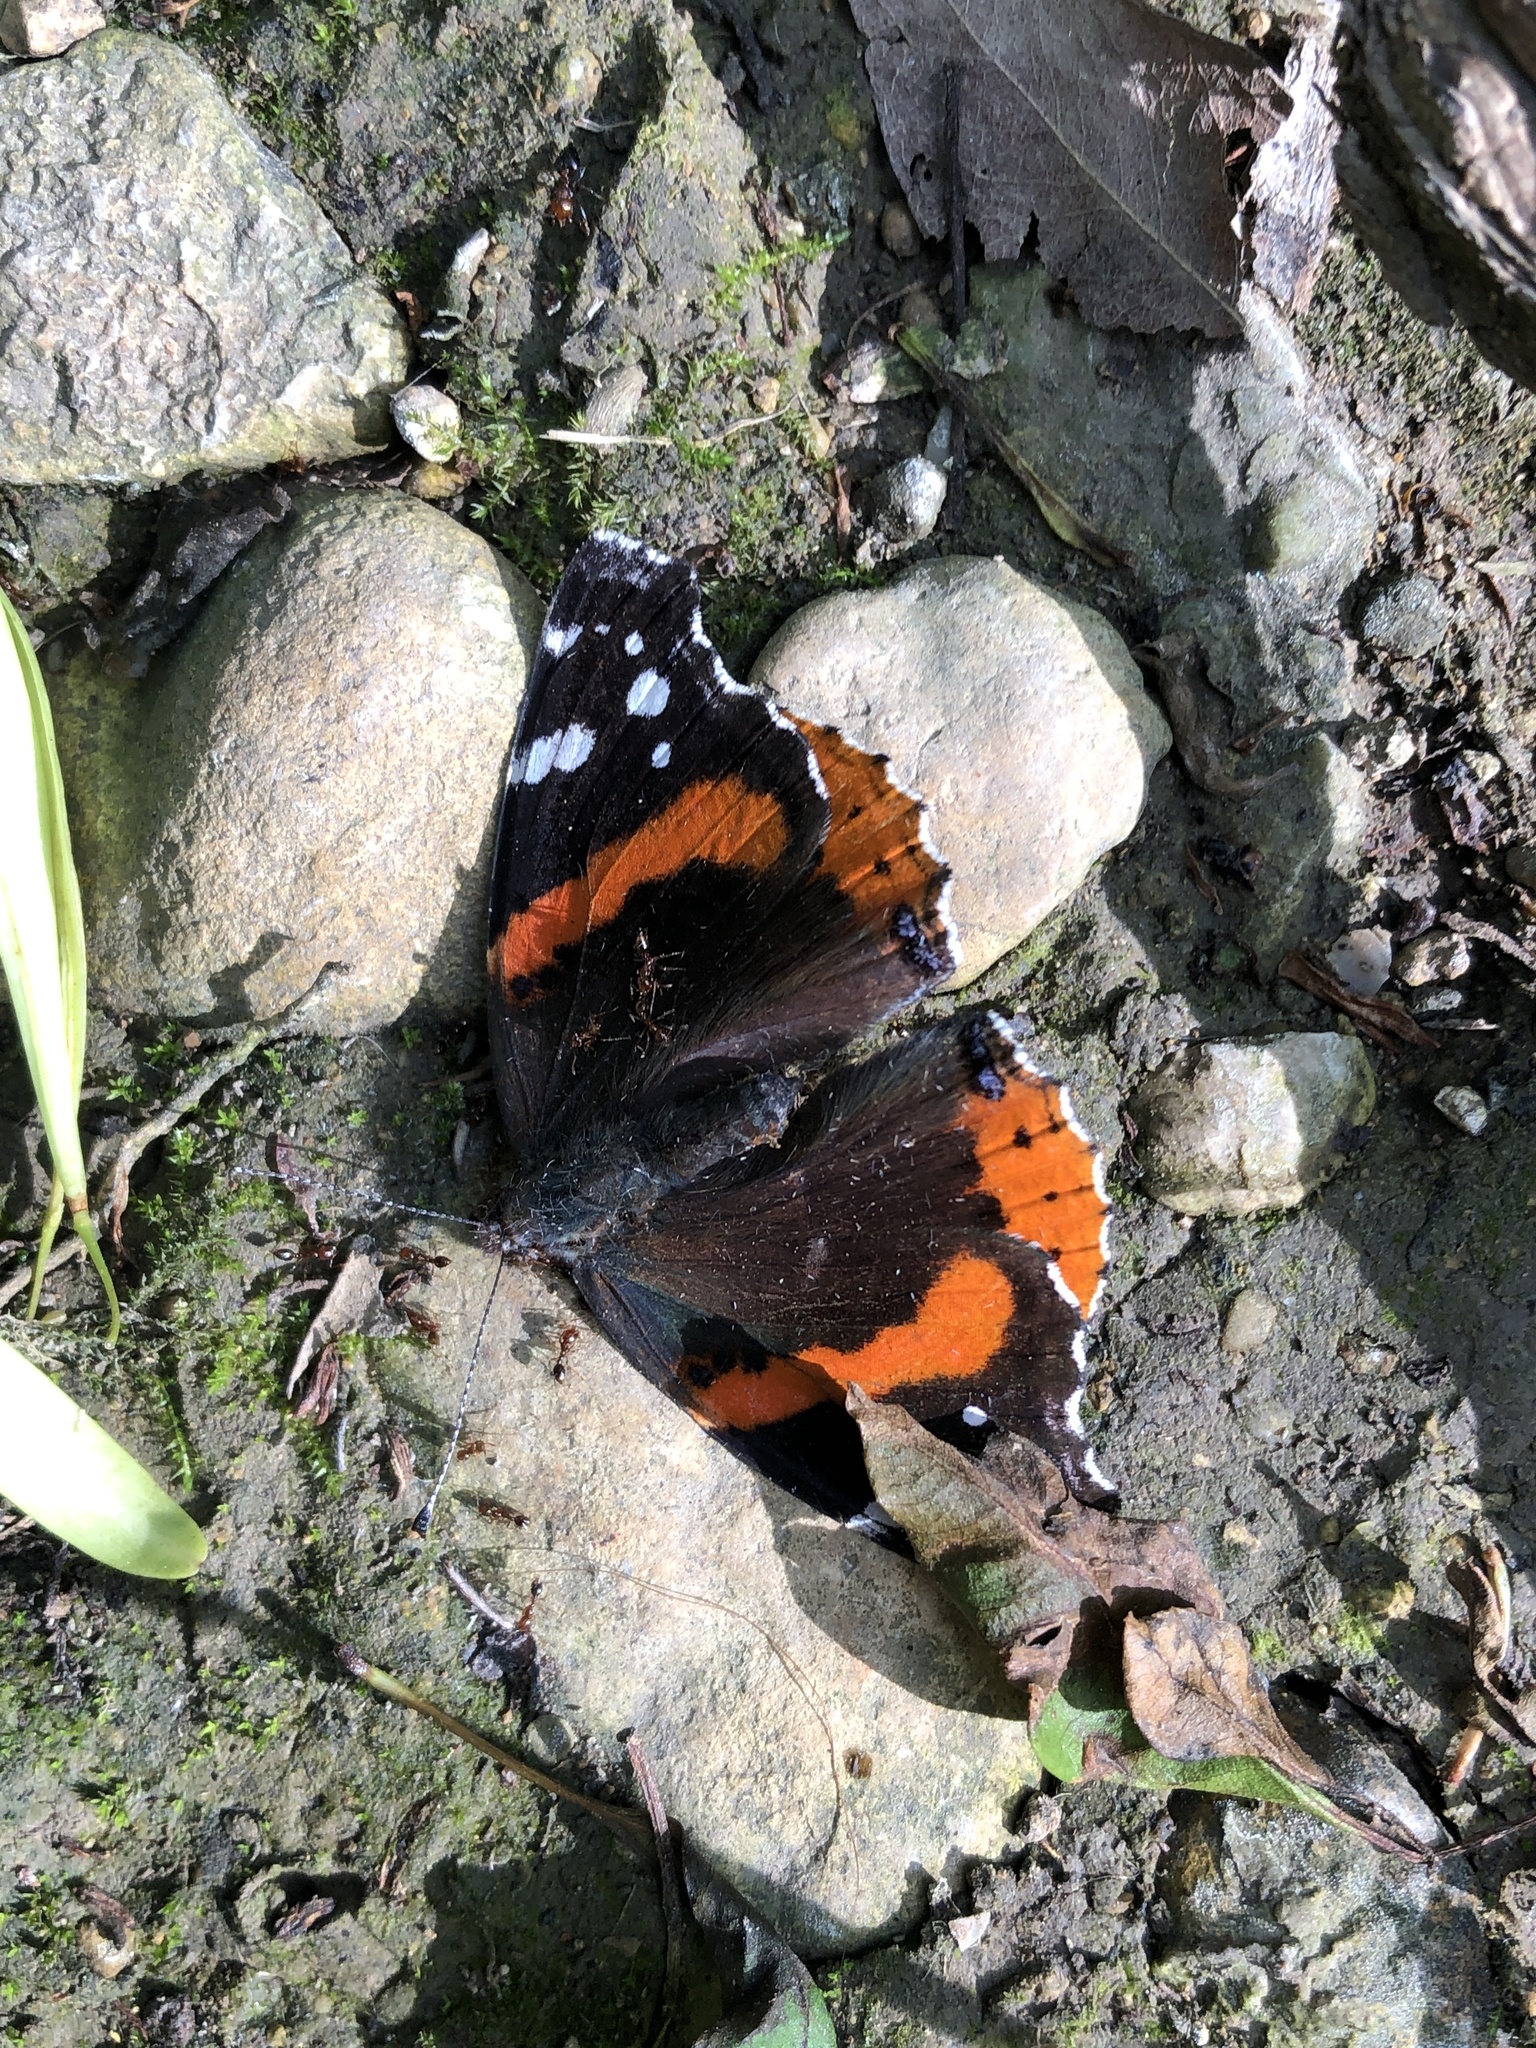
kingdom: Animalia
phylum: Arthropoda
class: Insecta
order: Lepidoptera
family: Nymphalidae
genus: Vanessa
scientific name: Vanessa atalanta
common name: Red admiral
